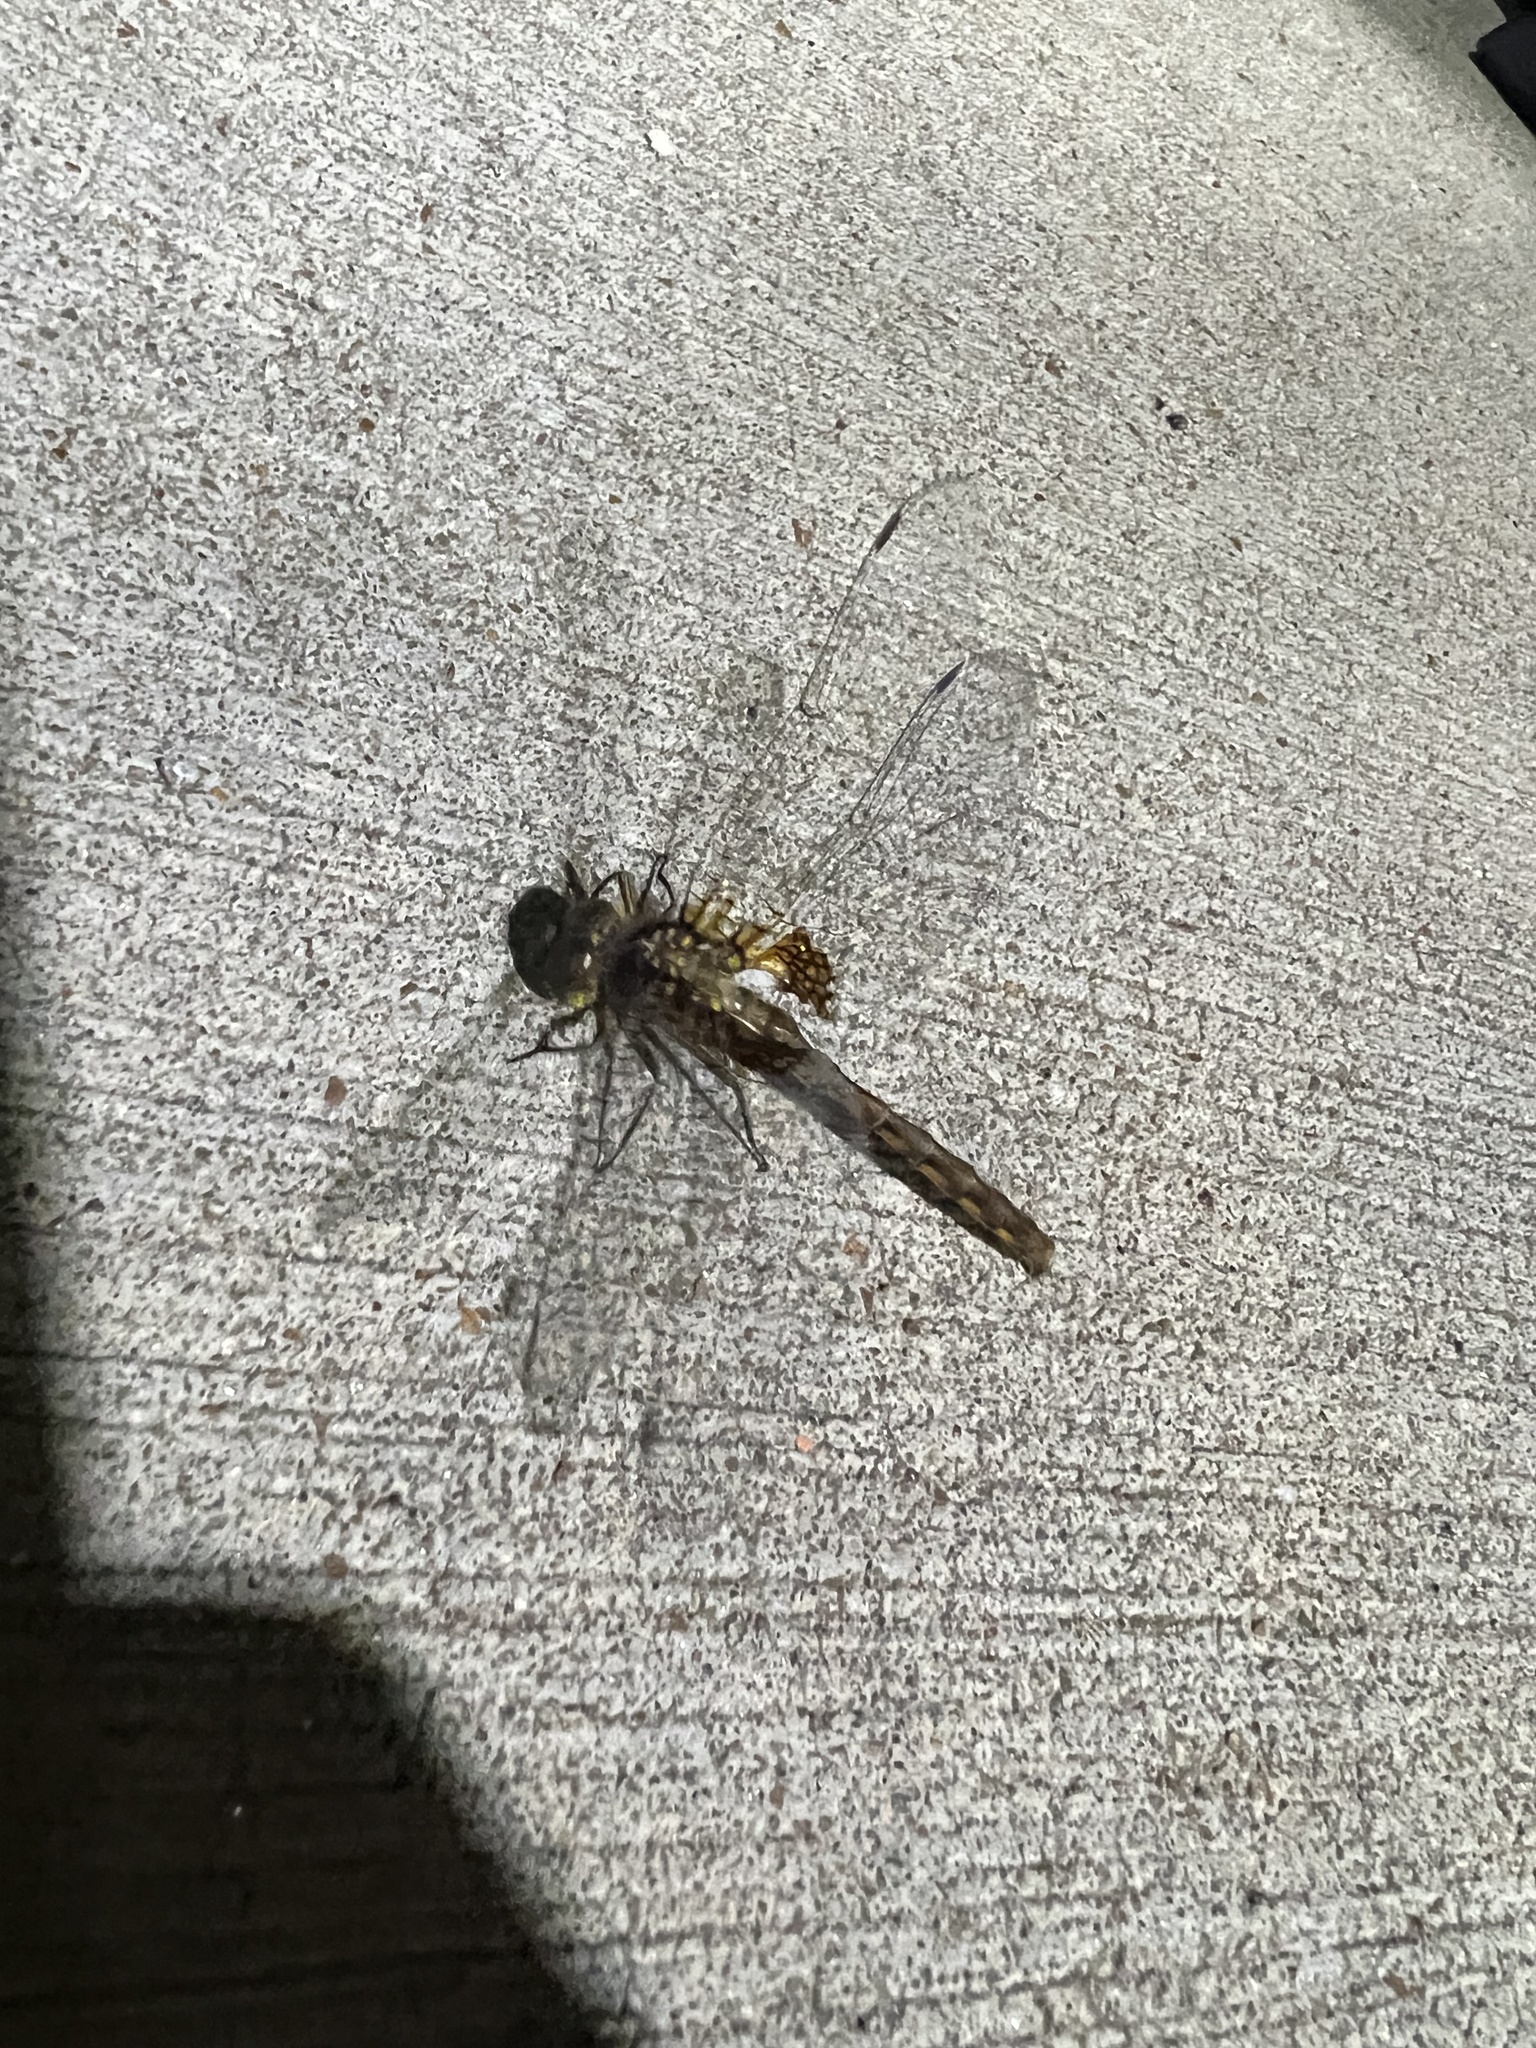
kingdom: Animalia
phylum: Arthropoda
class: Insecta
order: Odonata
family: Corduliidae
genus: Neurocordulia
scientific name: Neurocordulia yamaskanensis
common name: Stygian shadowdragon
